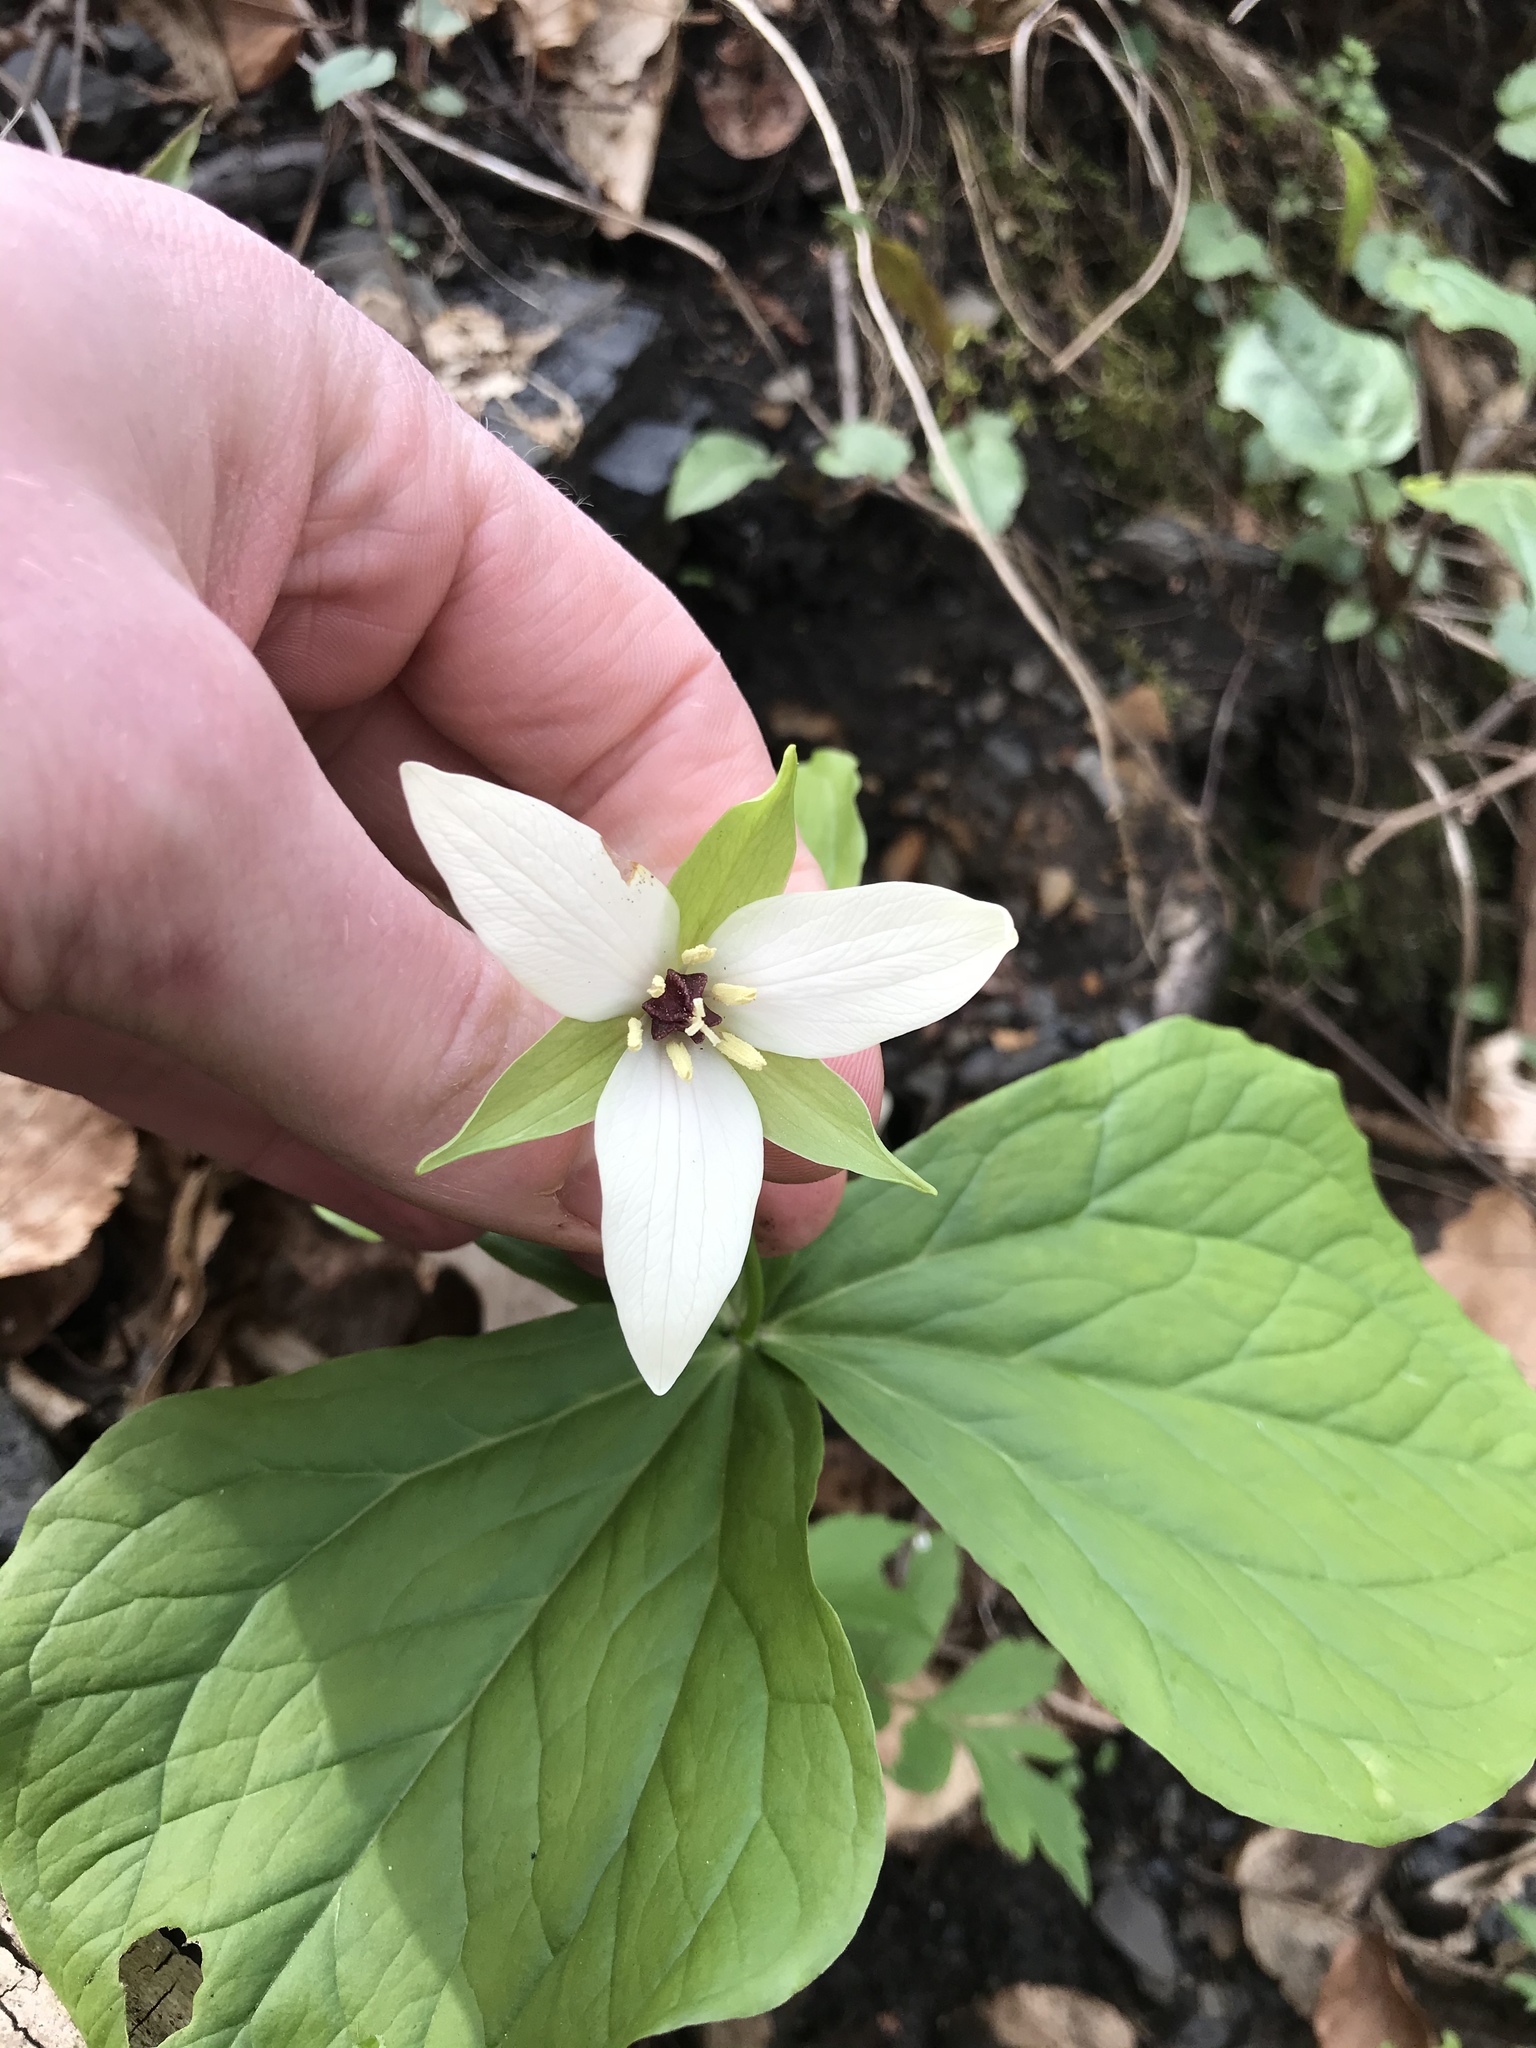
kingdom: Plantae
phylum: Tracheophyta
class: Liliopsida
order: Liliales
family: Melanthiaceae
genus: Trillium
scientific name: Trillium erectum
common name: Purple trillium
